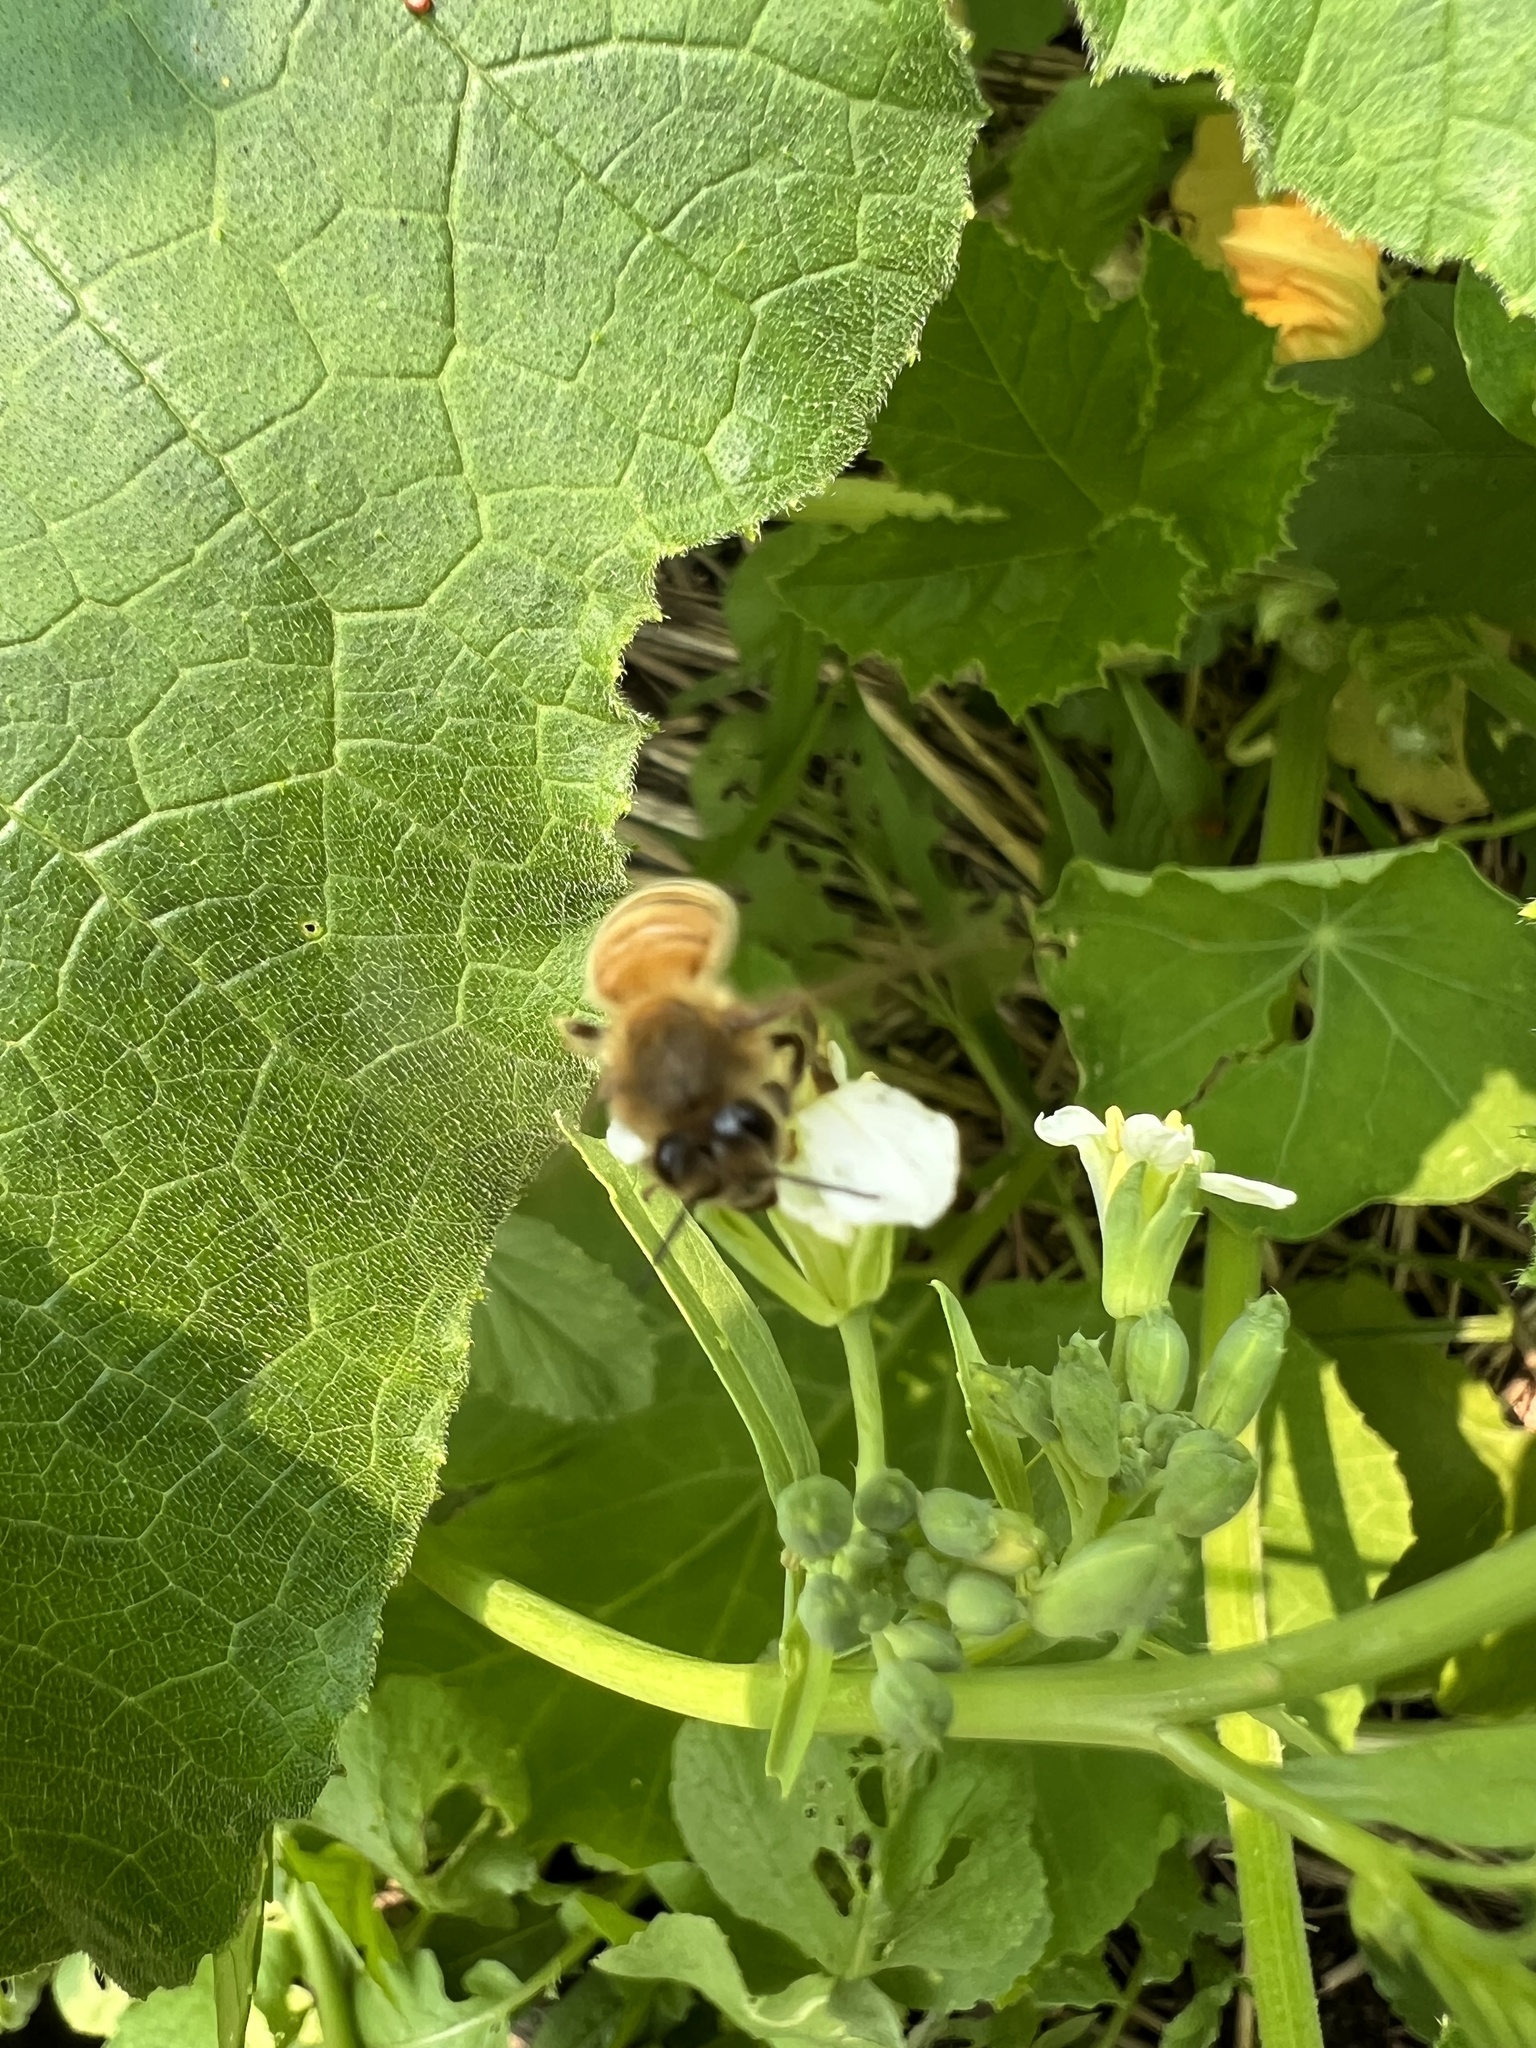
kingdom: Animalia
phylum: Arthropoda
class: Insecta
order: Hymenoptera
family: Apidae
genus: Apis
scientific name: Apis mellifera
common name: Honey bee
